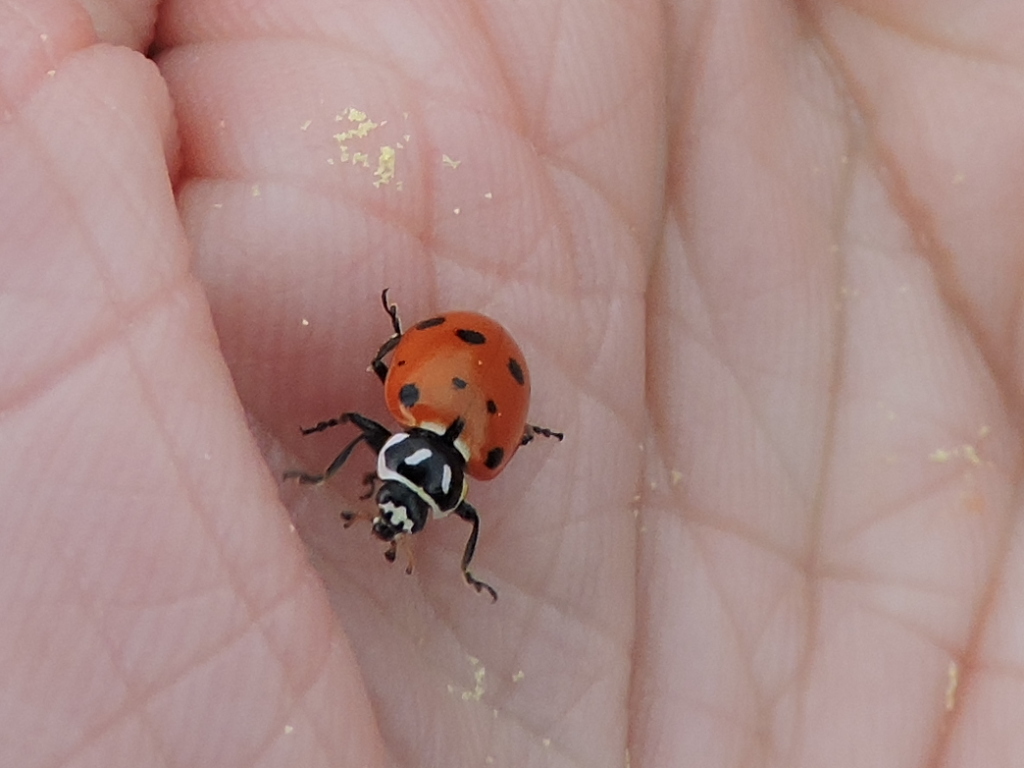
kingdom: Animalia
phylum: Arthropoda
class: Insecta
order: Coleoptera
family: Coccinellidae
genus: Hippodamia
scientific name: Hippodamia convergens
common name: Convergent lady beetle
